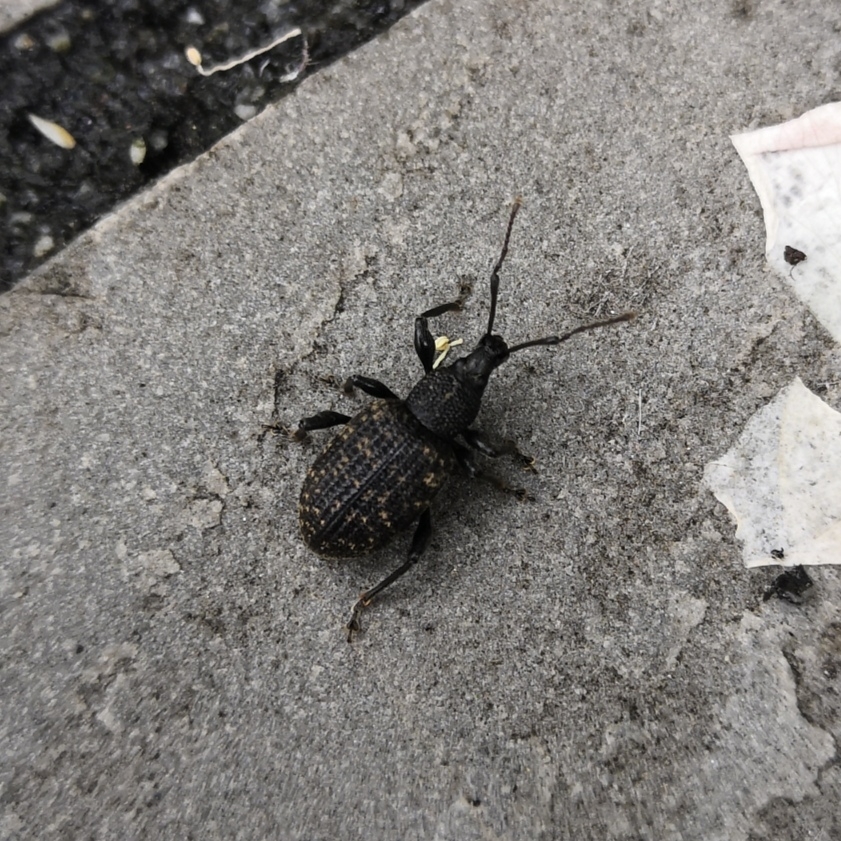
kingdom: Animalia
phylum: Arthropoda
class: Insecta
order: Coleoptera
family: Curculionidae
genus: Otiorhynchus
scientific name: Otiorhynchus sulcatus
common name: Black vine weevil
